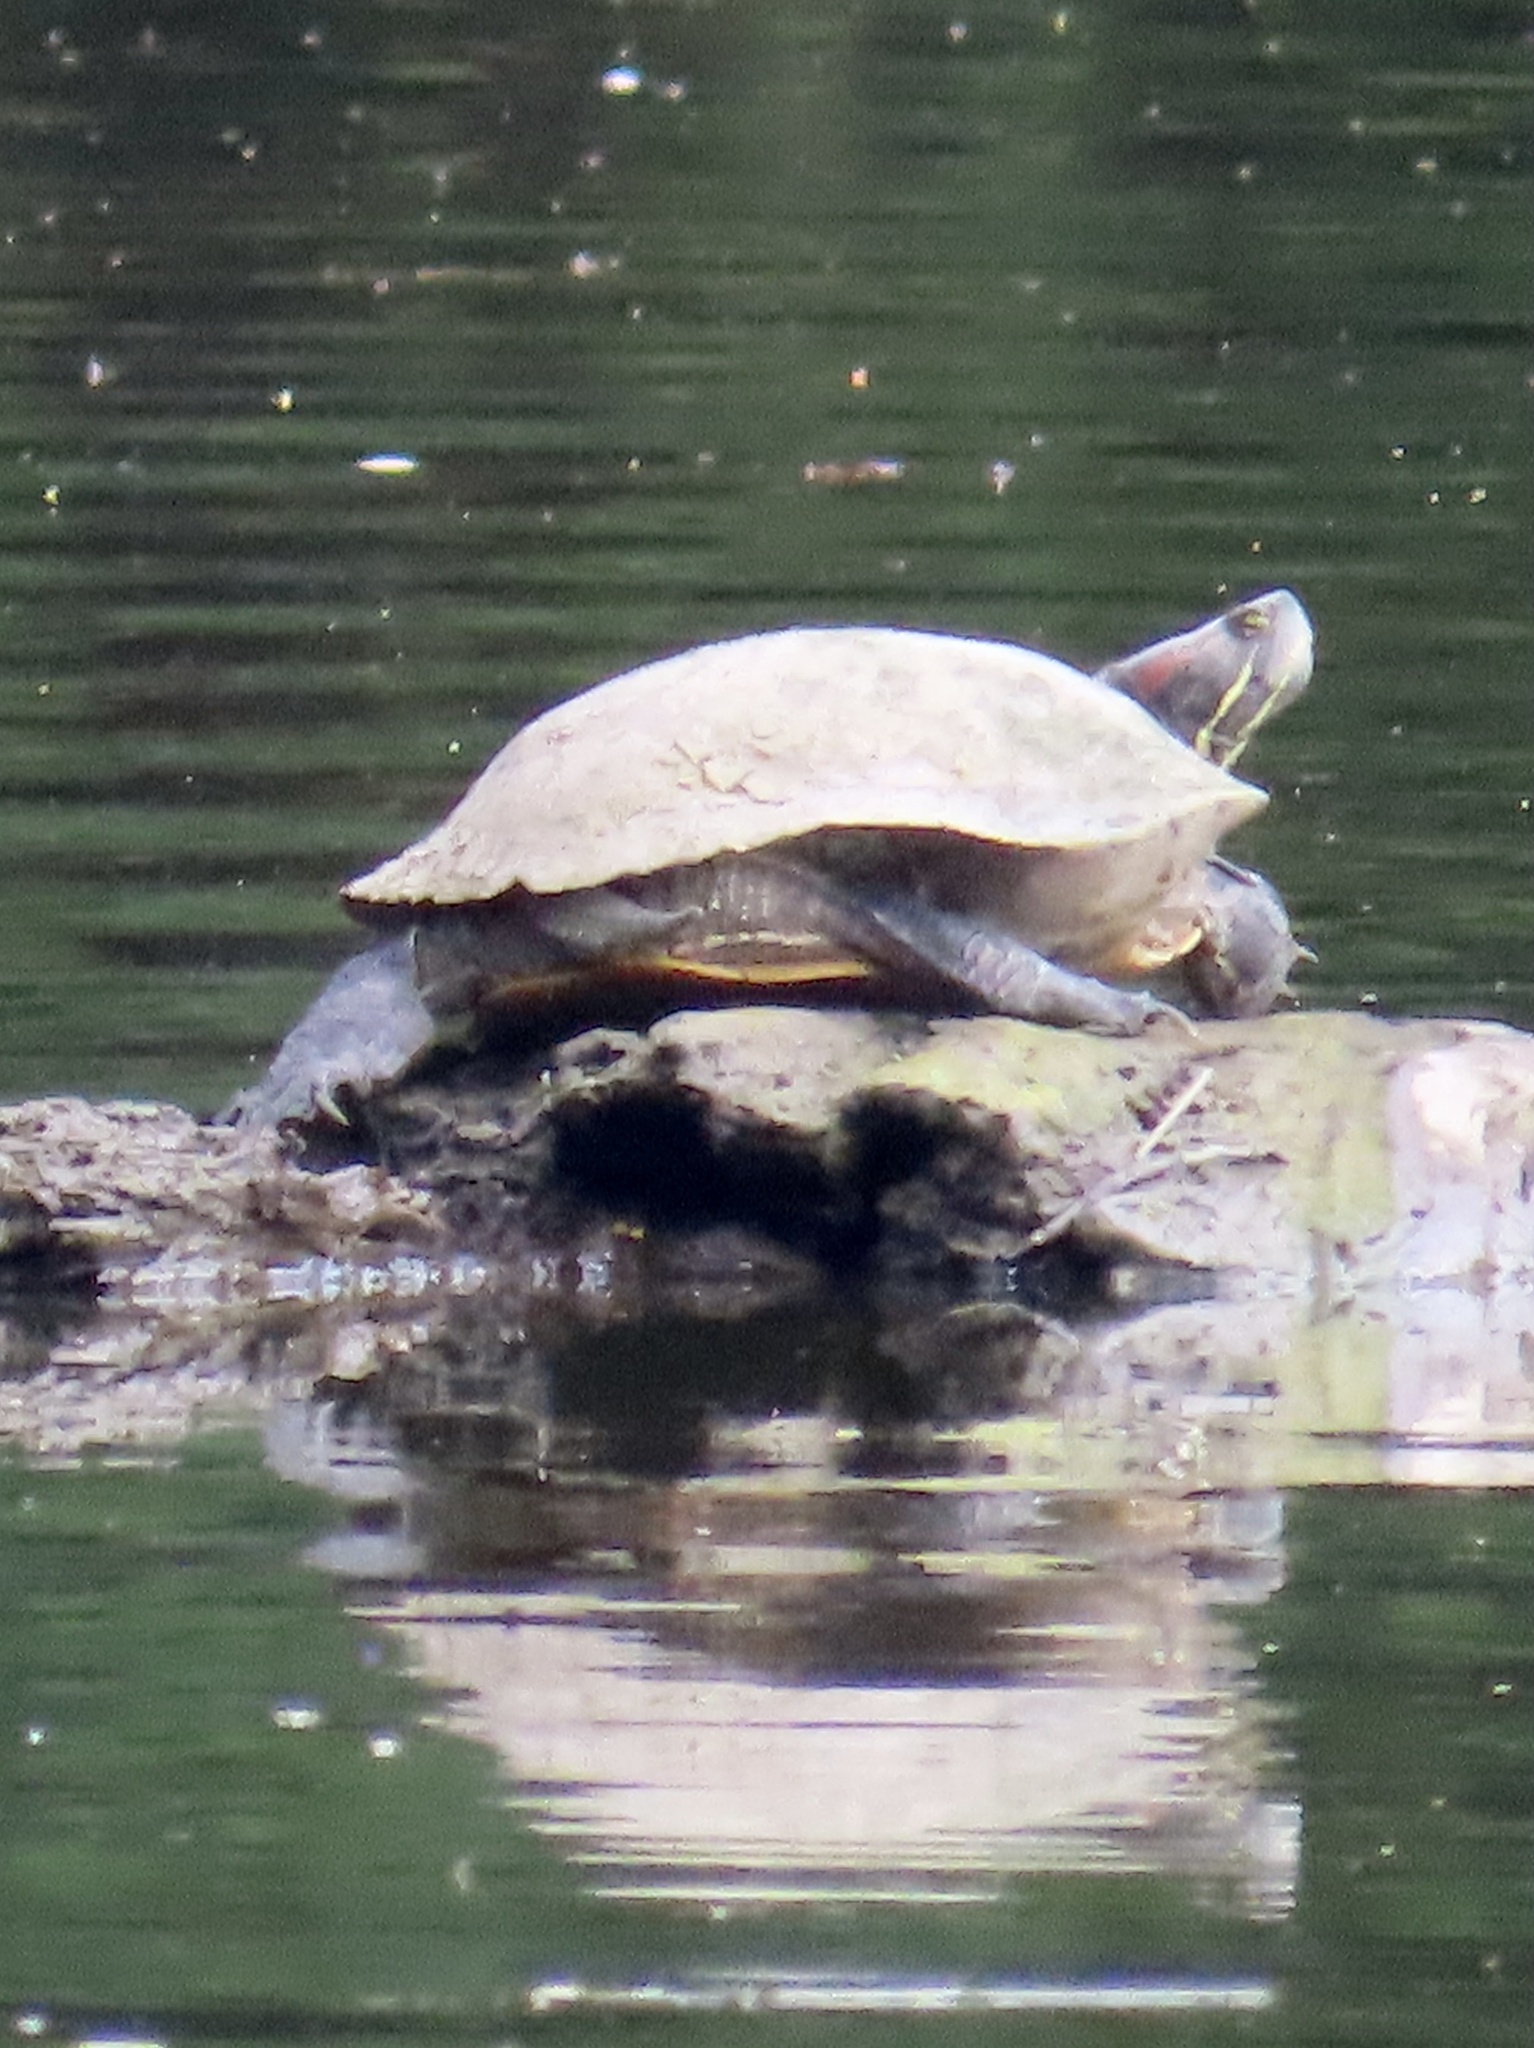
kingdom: Animalia
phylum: Chordata
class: Testudines
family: Emydidae
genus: Trachemys
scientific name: Trachemys scripta
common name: Slider
